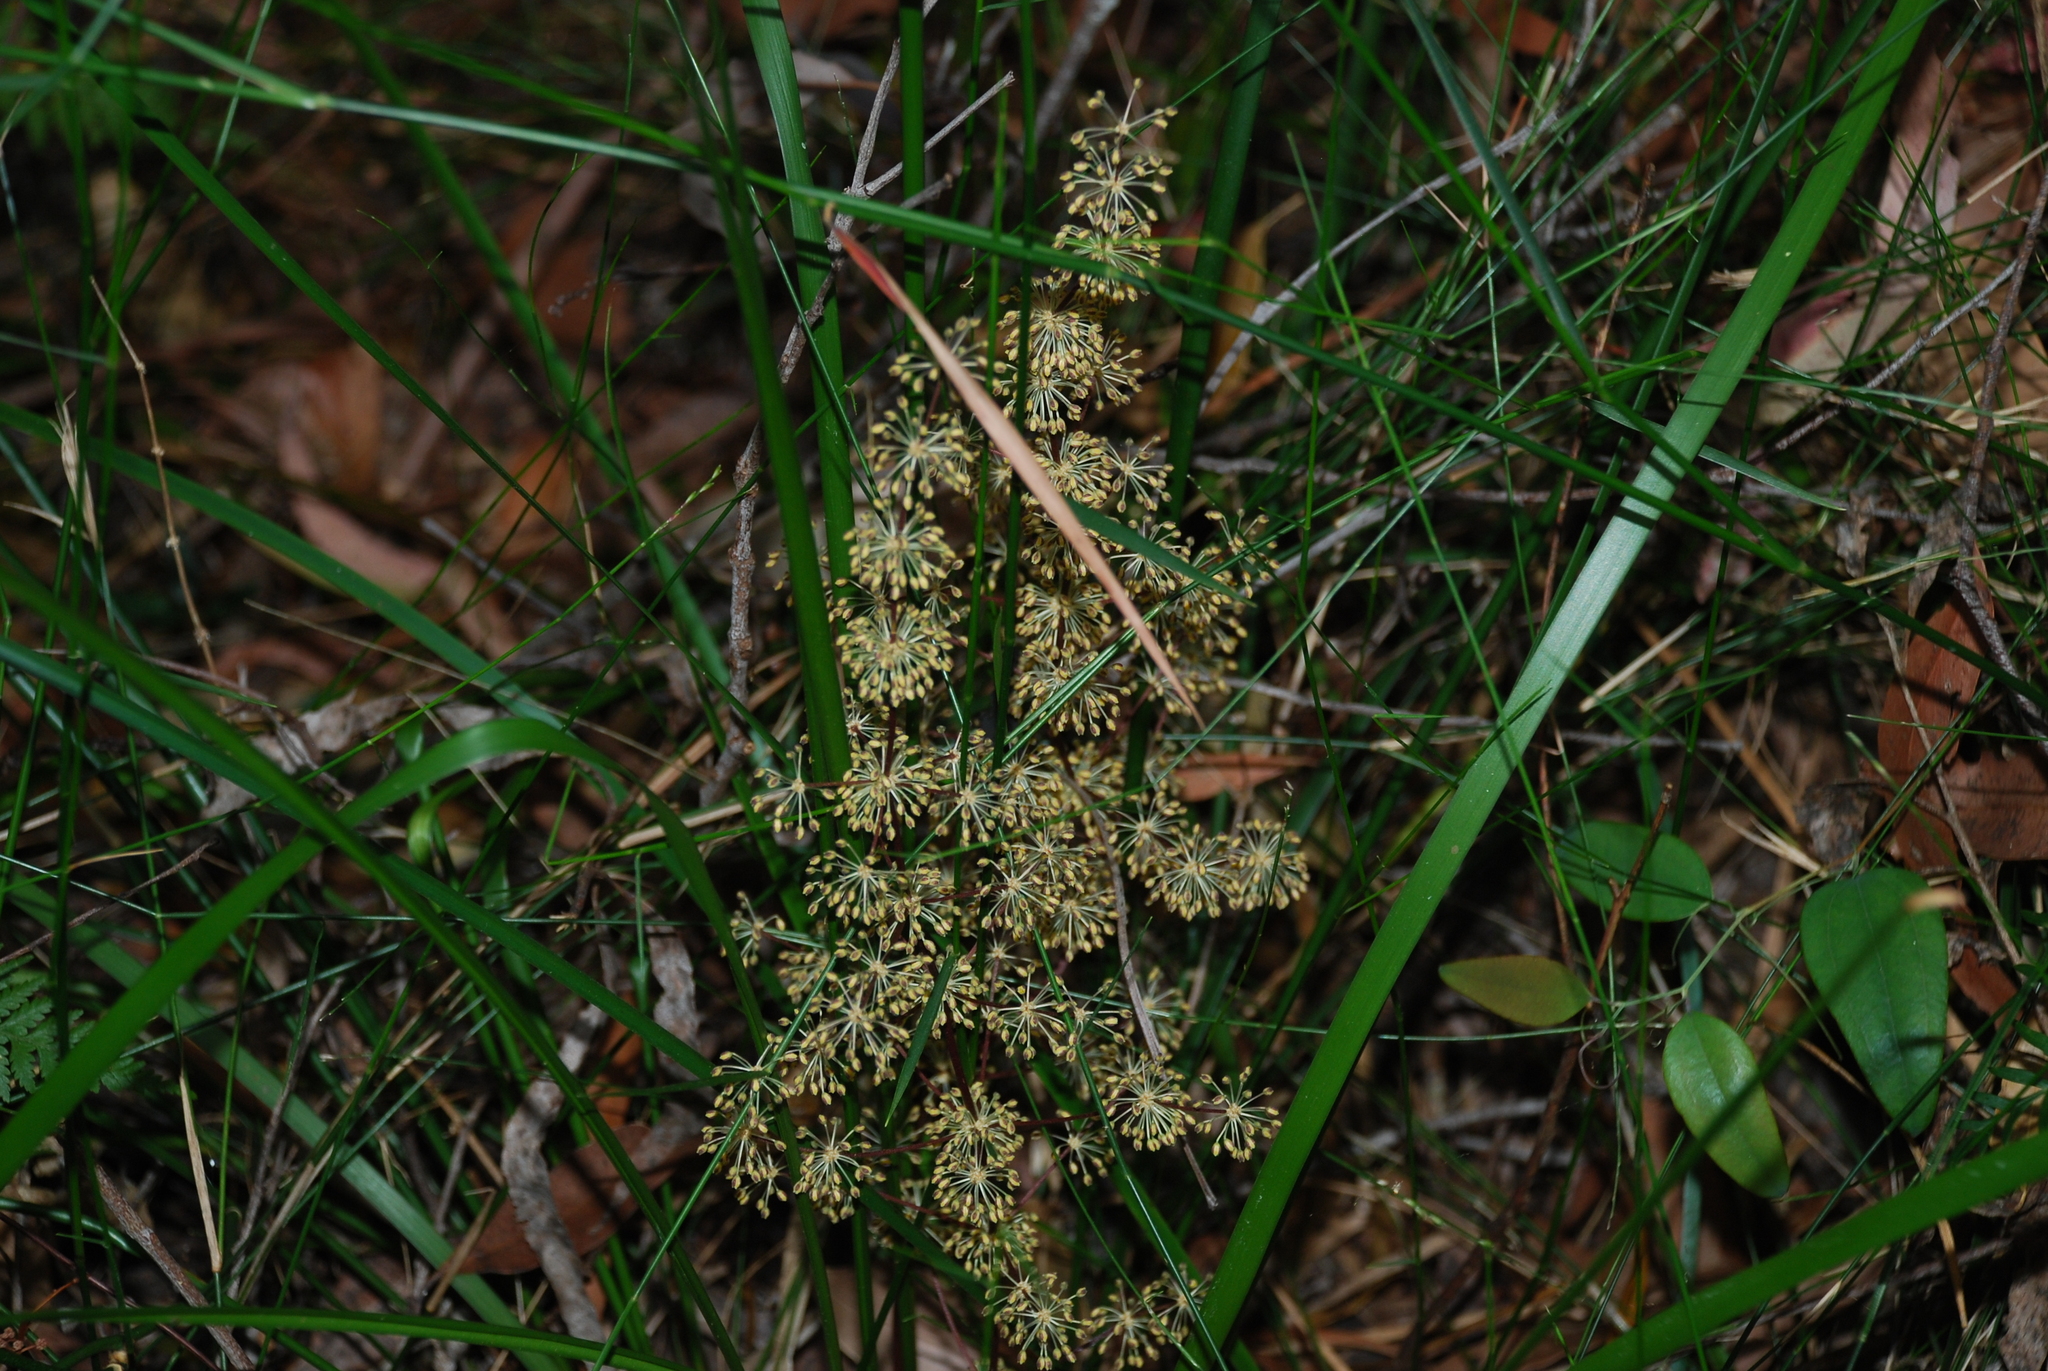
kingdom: Plantae
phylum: Tracheophyta
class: Liliopsida
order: Asparagales
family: Asparagaceae
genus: Lomandra
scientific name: Lomandra multiflora
